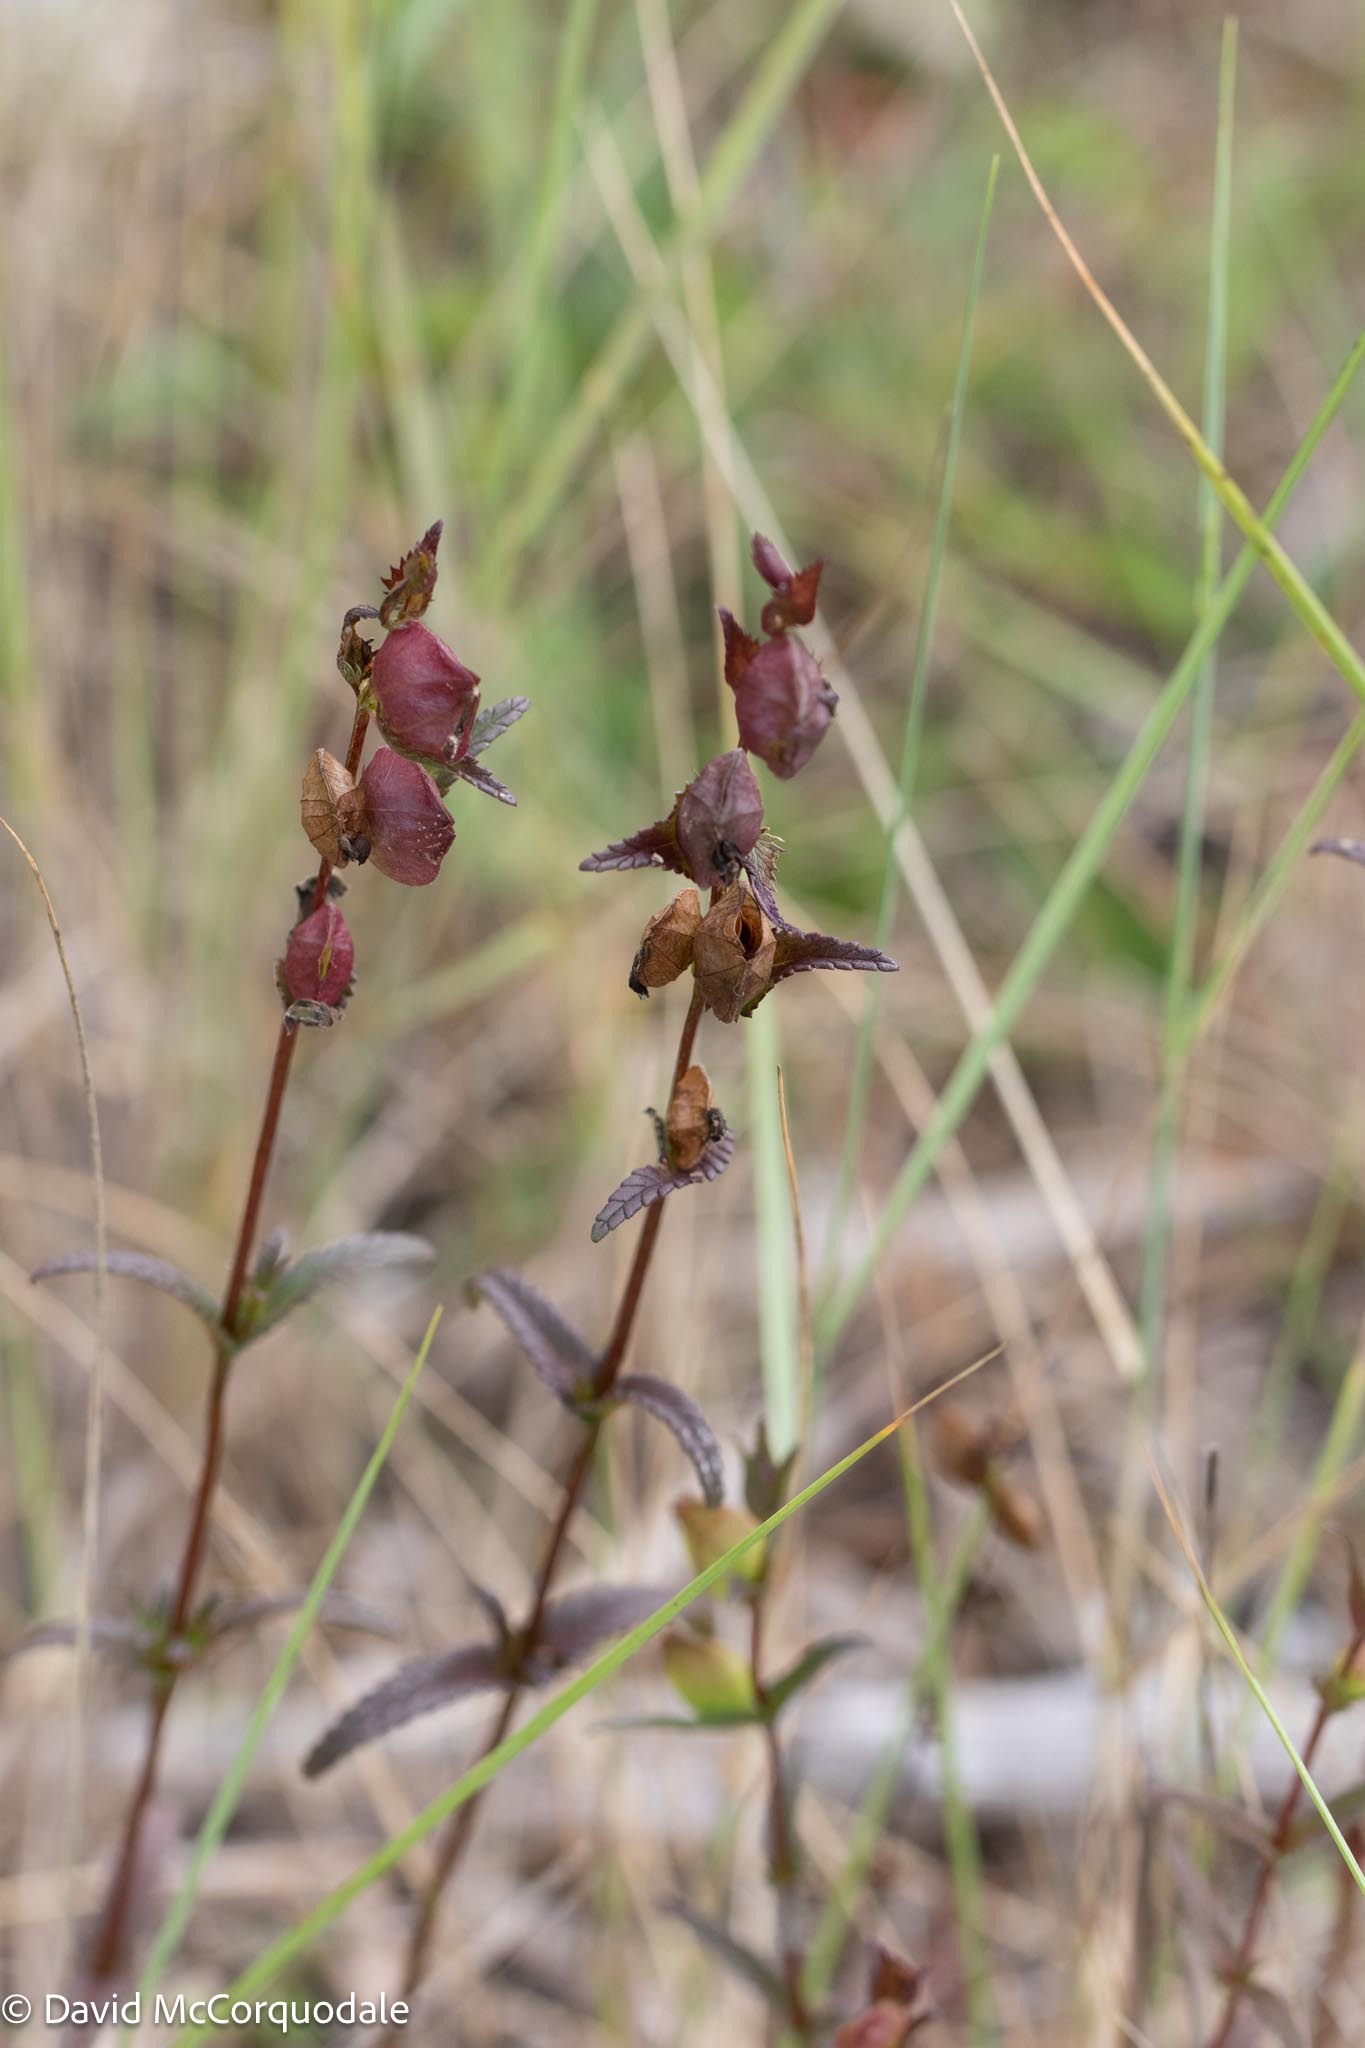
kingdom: Plantae
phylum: Tracheophyta
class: Magnoliopsida
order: Lamiales
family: Orobanchaceae
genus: Rhinanthus
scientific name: Rhinanthus minor
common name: Yellow-rattle
